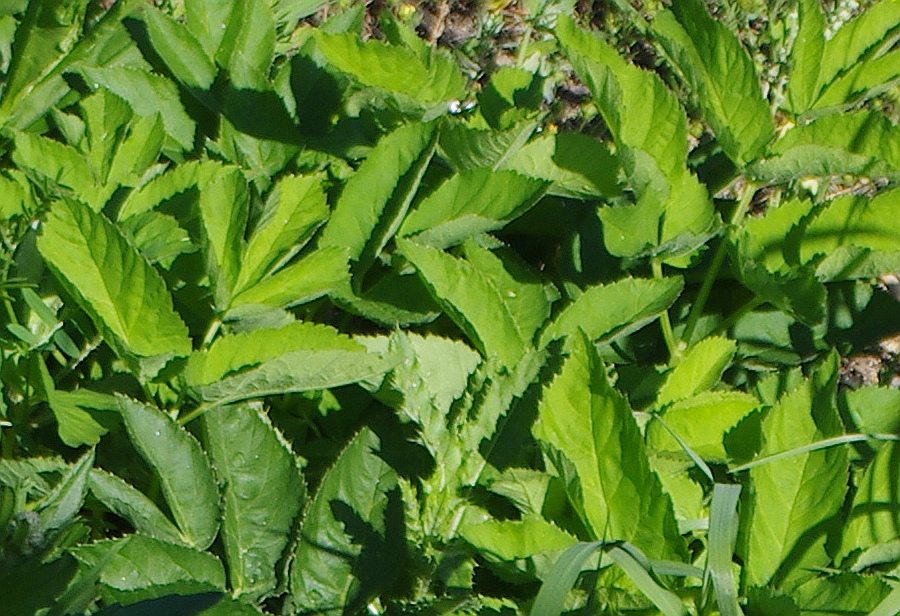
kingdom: Plantae
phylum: Tracheophyta
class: Magnoliopsida
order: Apiales
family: Apiaceae
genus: Aegopodium
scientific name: Aegopodium podagraria
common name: Ground-elder
